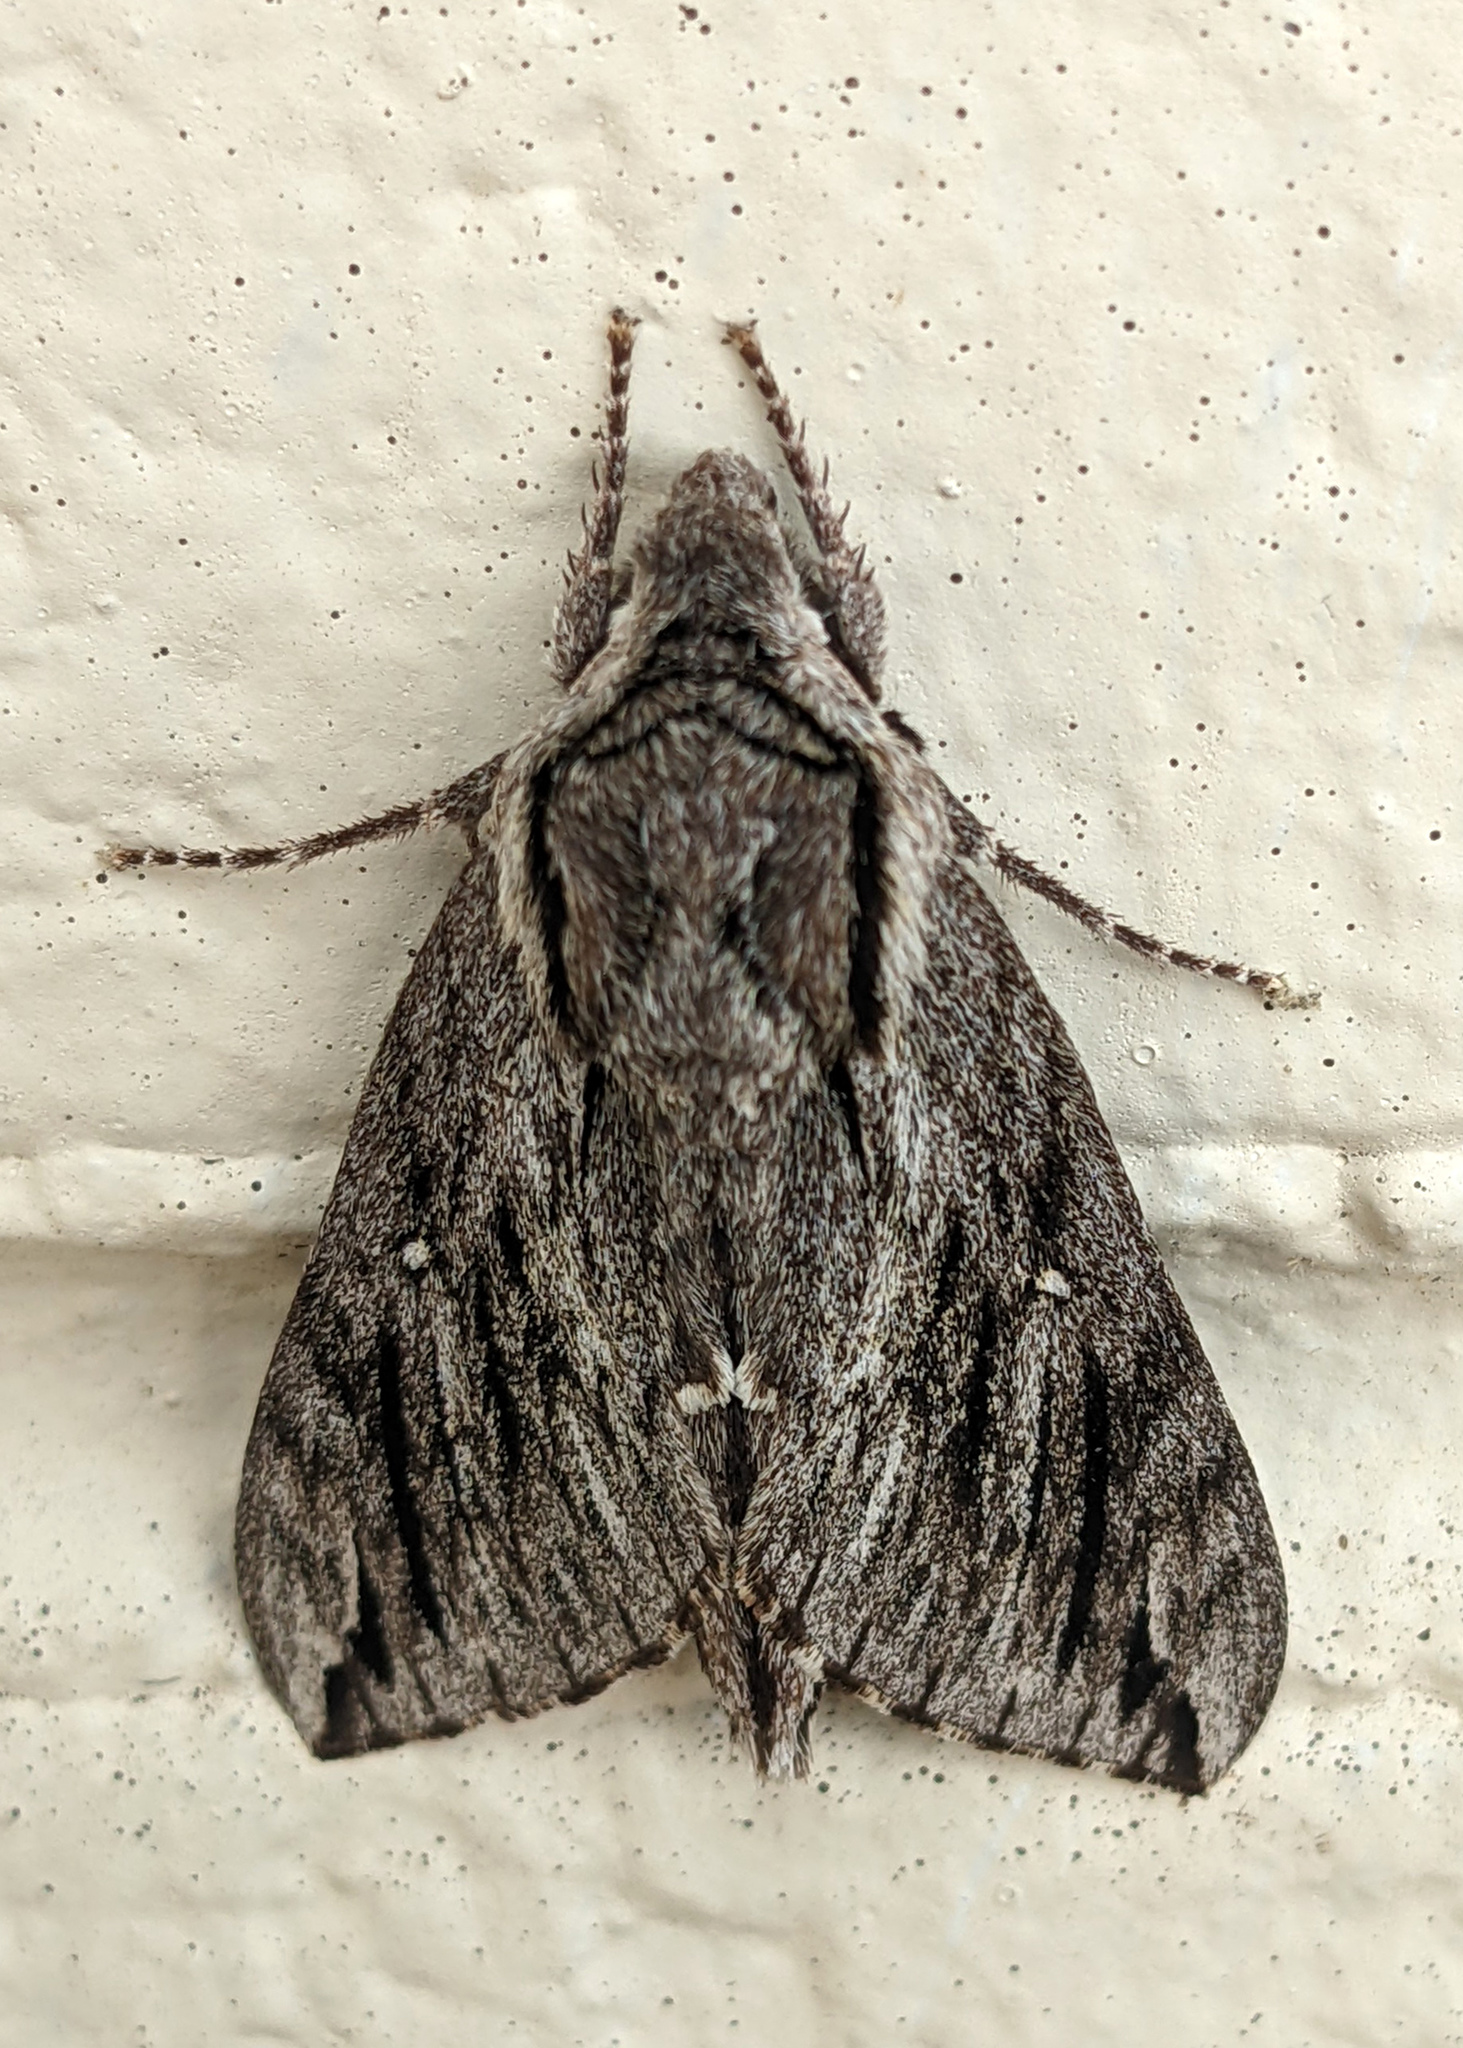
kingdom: Animalia
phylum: Arthropoda
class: Insecta
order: Lepidoptera
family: Sphingidae
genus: Paratrea
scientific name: Paratrea plebeja
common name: Plebian sphinx
